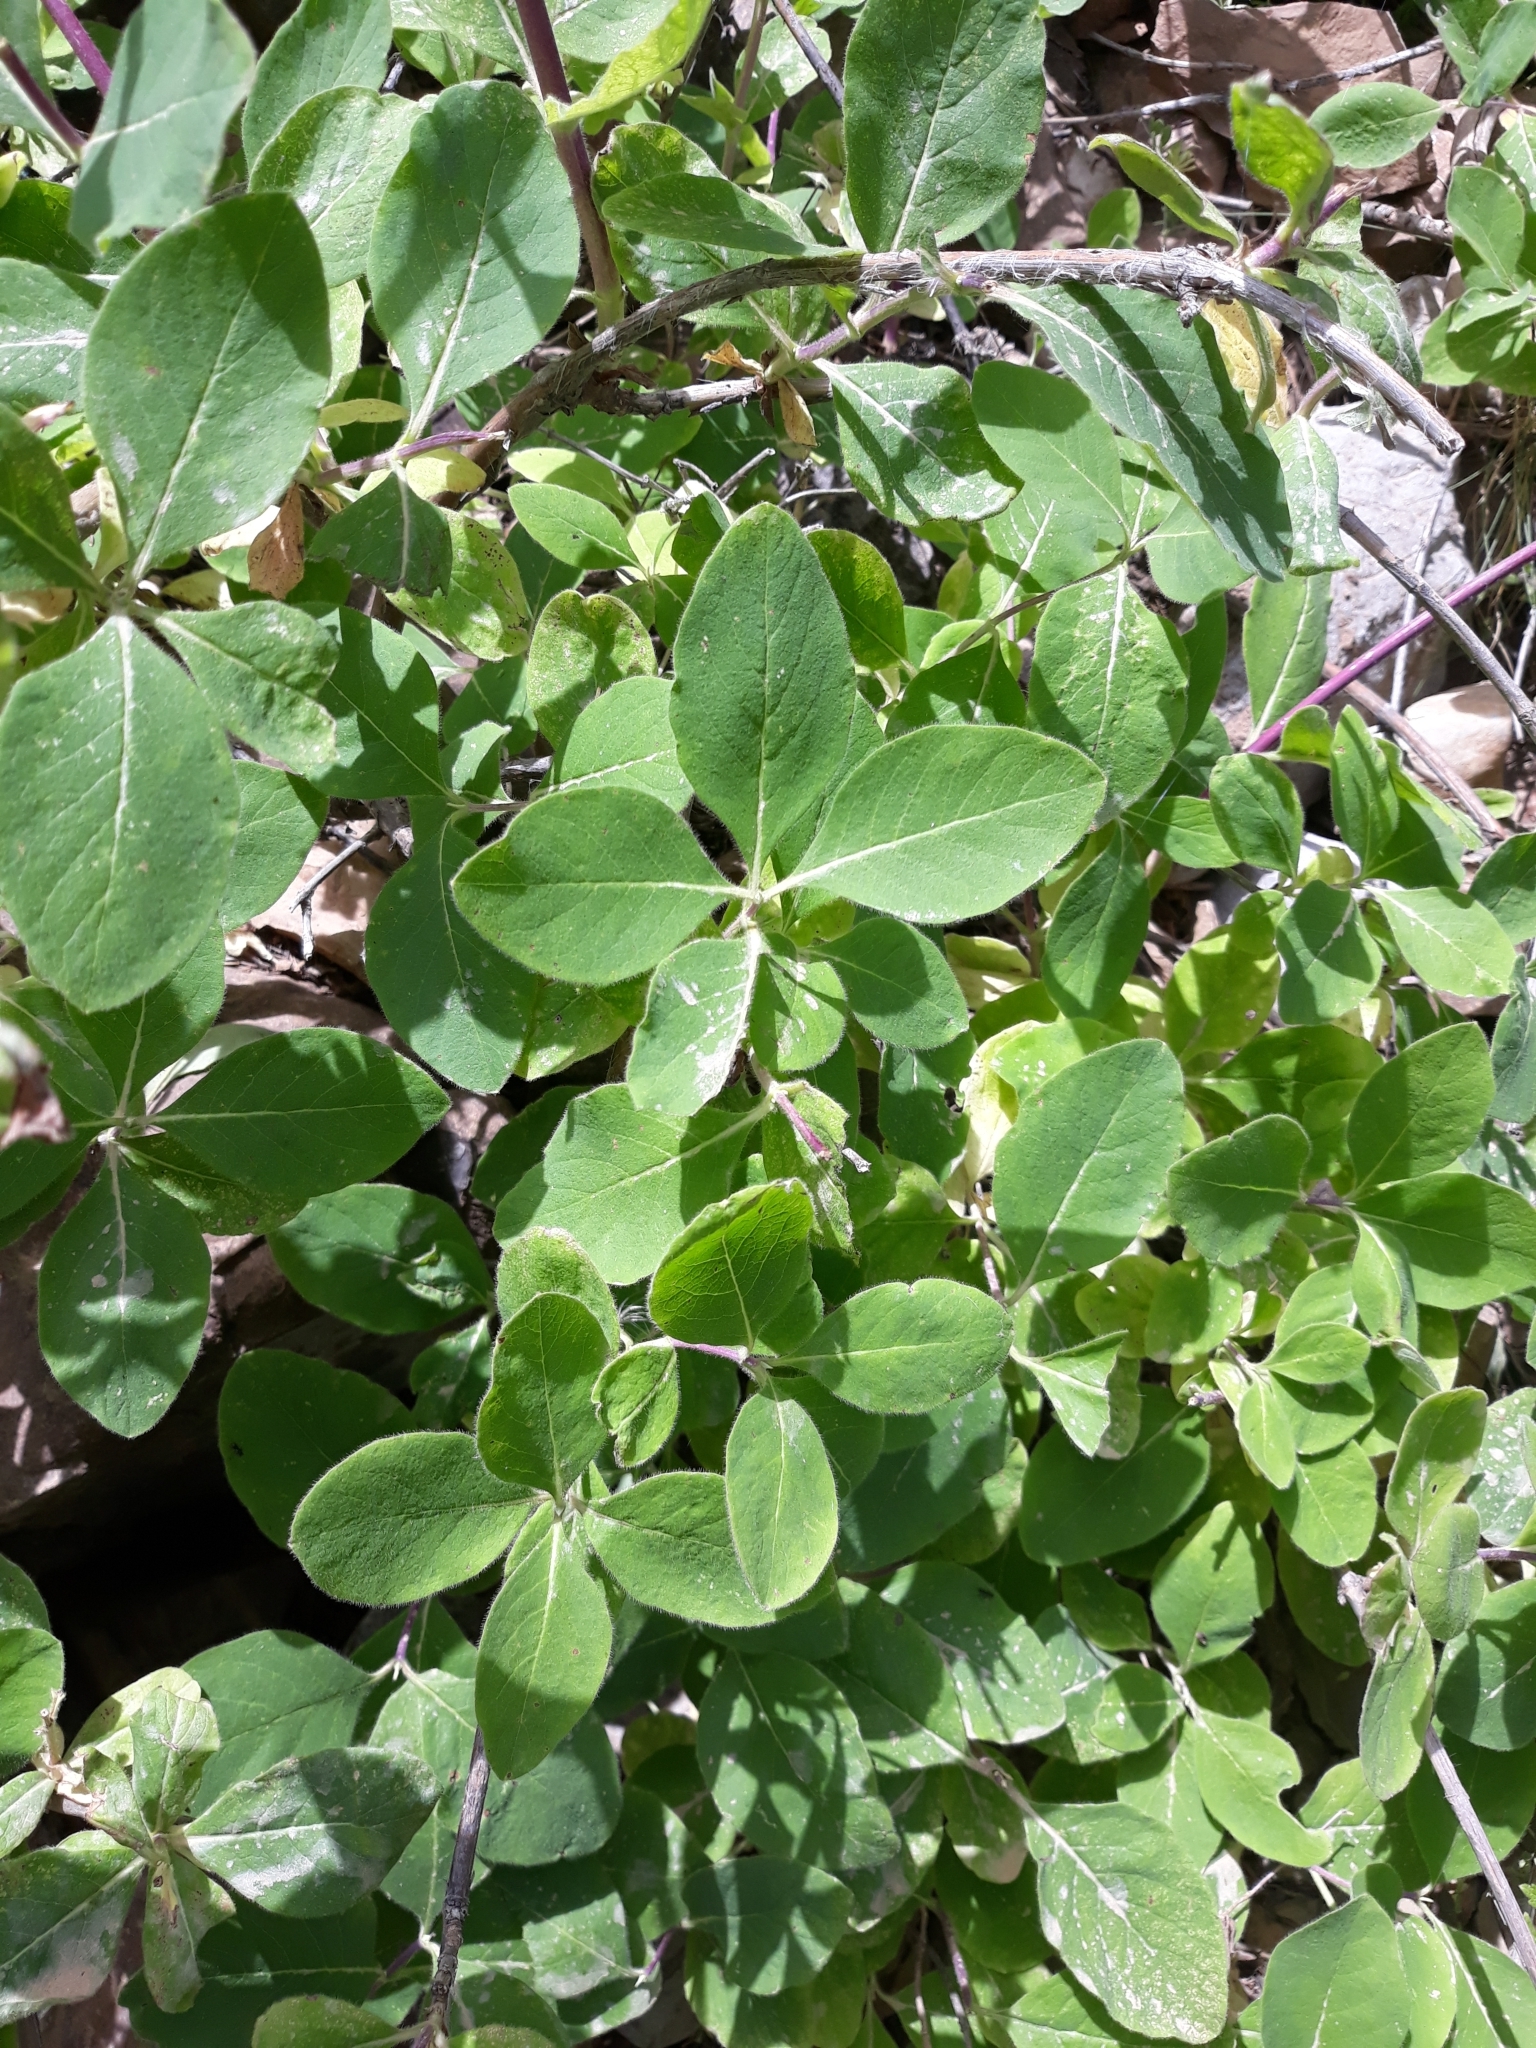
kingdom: Plantae
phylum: Tracheophyta
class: Magnoliopsida
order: Dipsacales
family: Caprifoliaceae
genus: Lonicera
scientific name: Lonicera etrusca
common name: Etruscan honeysuckle
